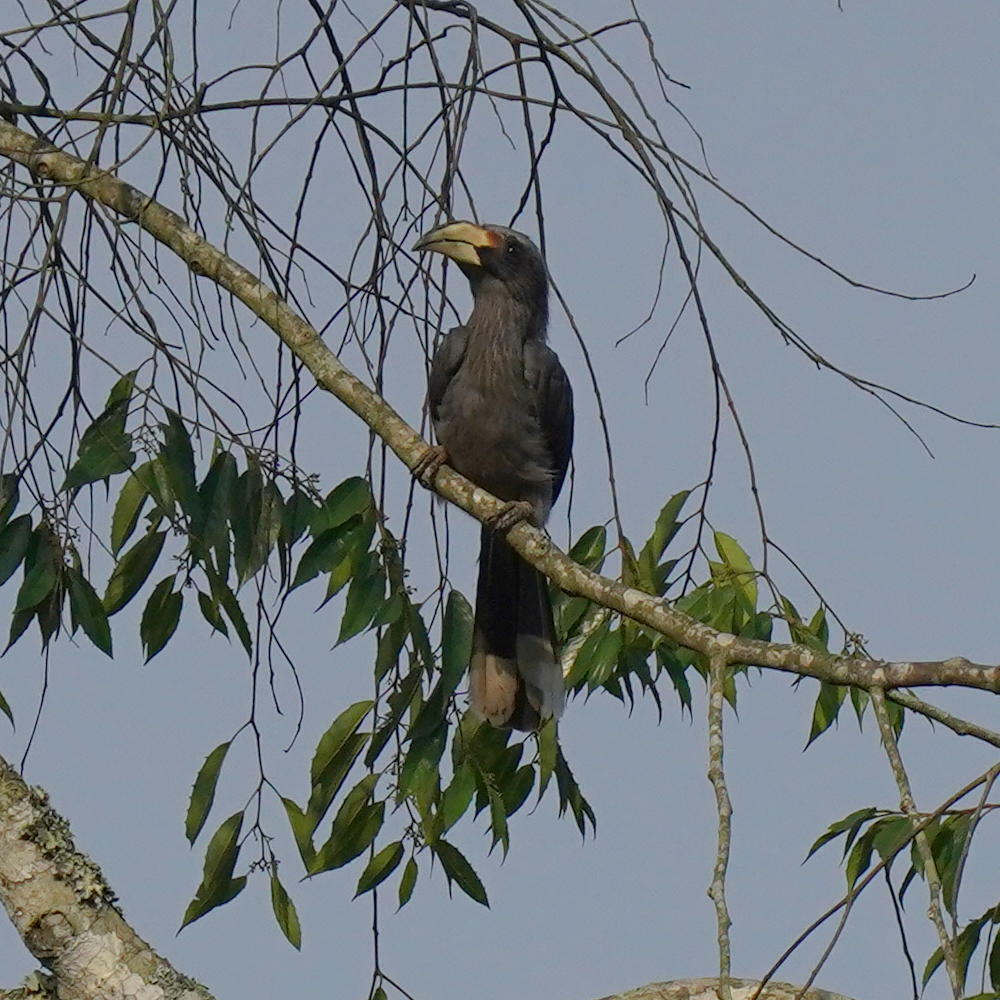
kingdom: Animalia
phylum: Chordata
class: Aves
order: Bucerotiformes
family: Bucerotidae
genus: Ocyceros
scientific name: Ocyceros griseus
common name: Malabar grey hornbill
